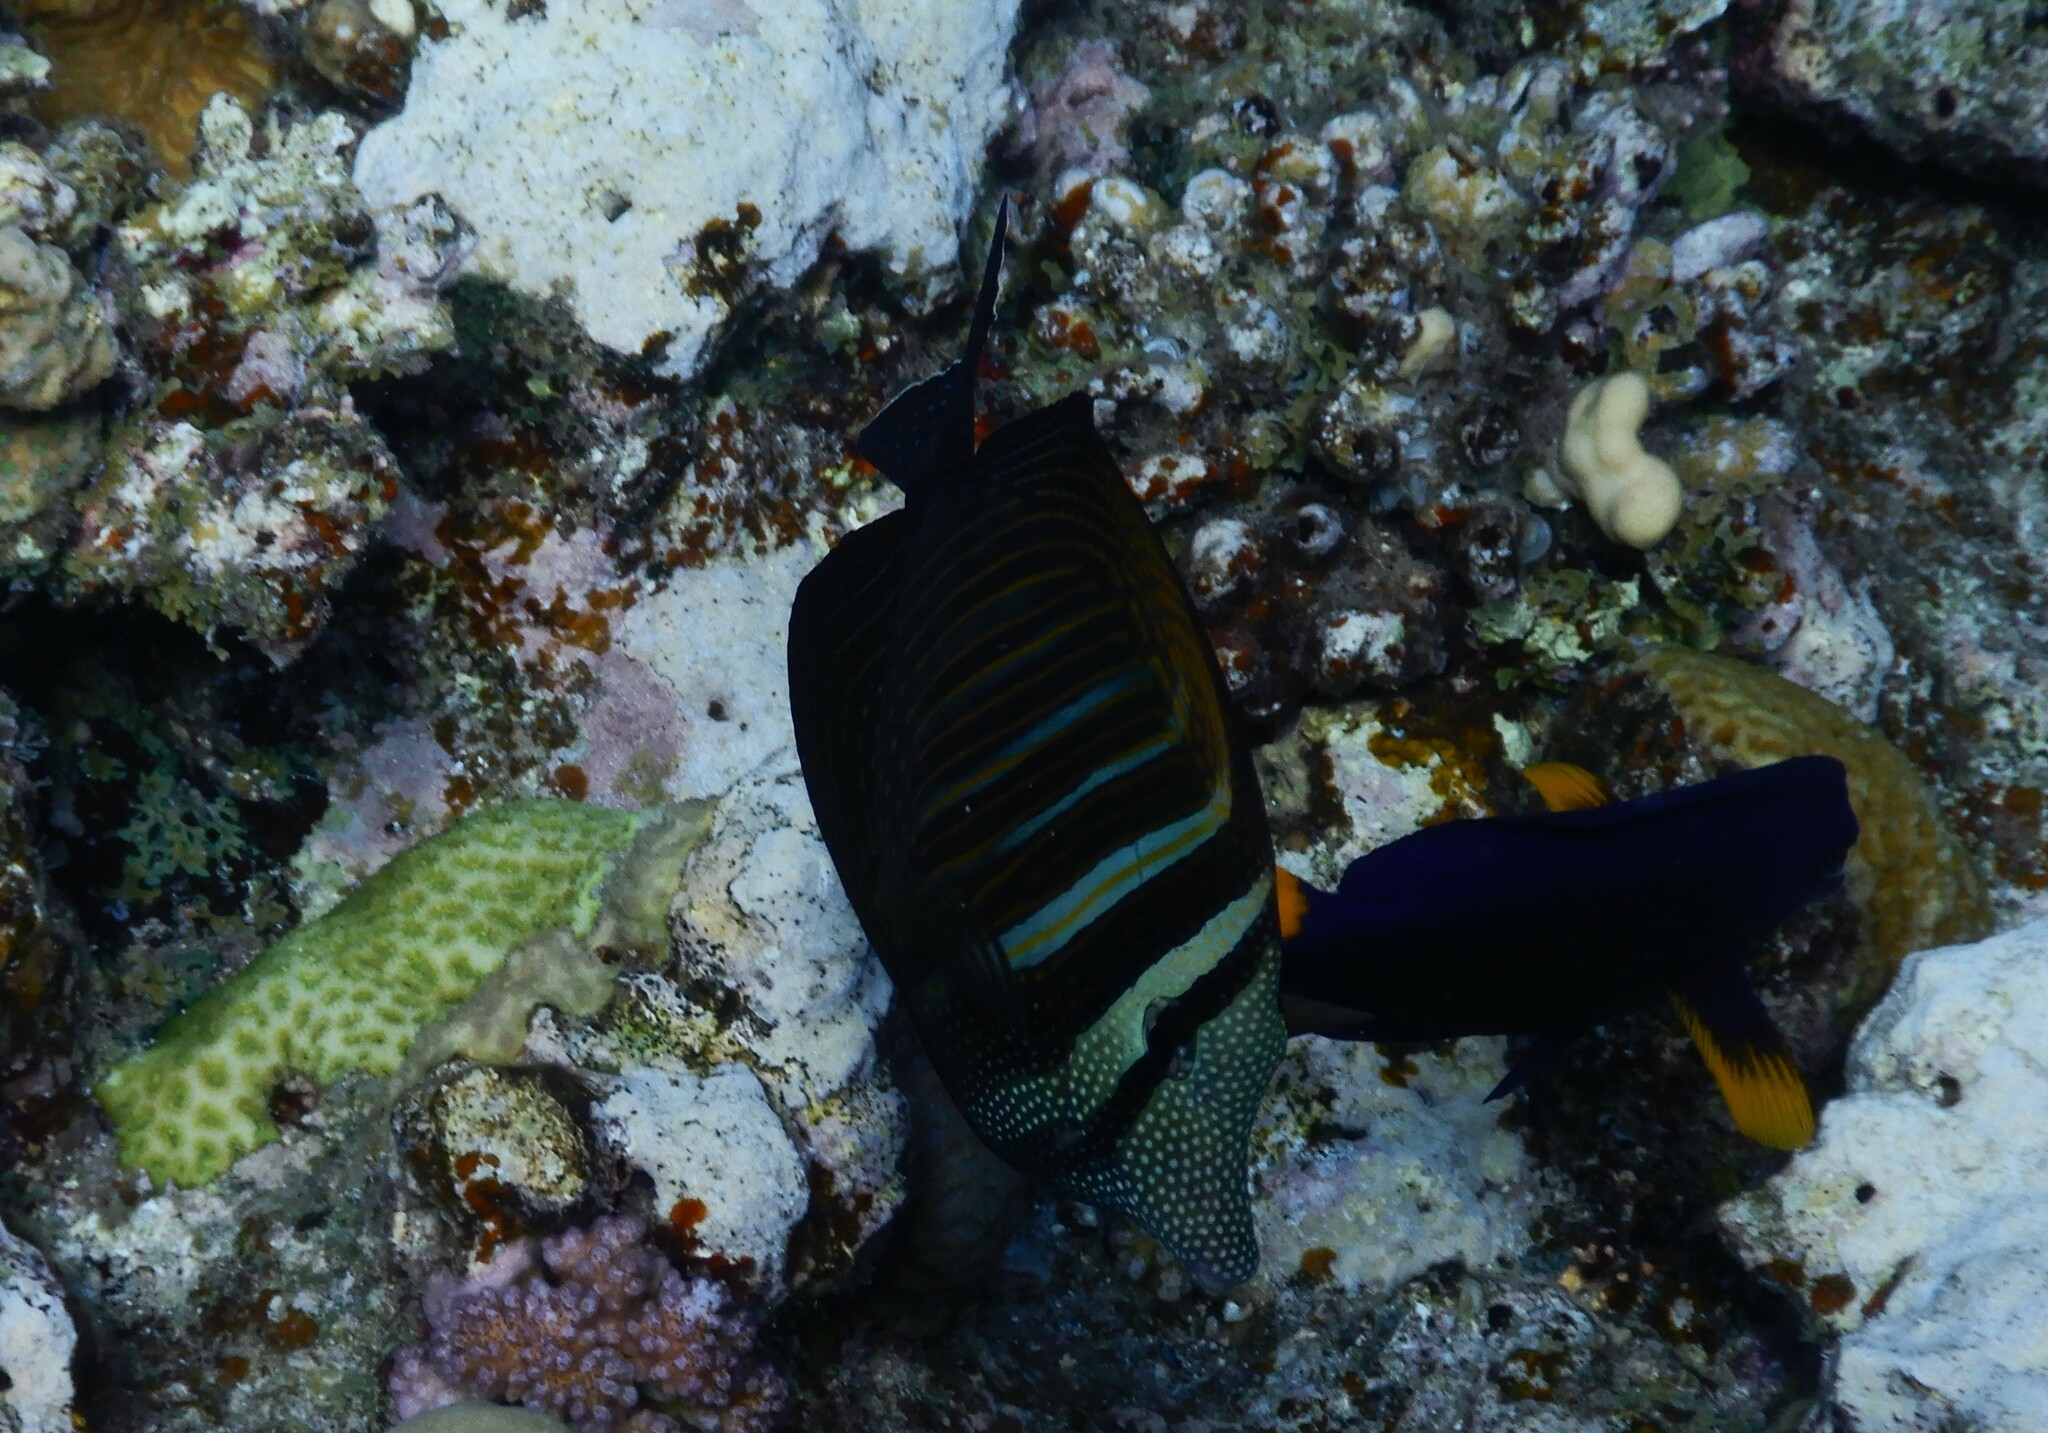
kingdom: Animalia
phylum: Chordata
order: Perciformes
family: Acanthuridae
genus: Zebrasoma
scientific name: Zebrasoma desjardinii
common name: Desjardin's sailfin tang
